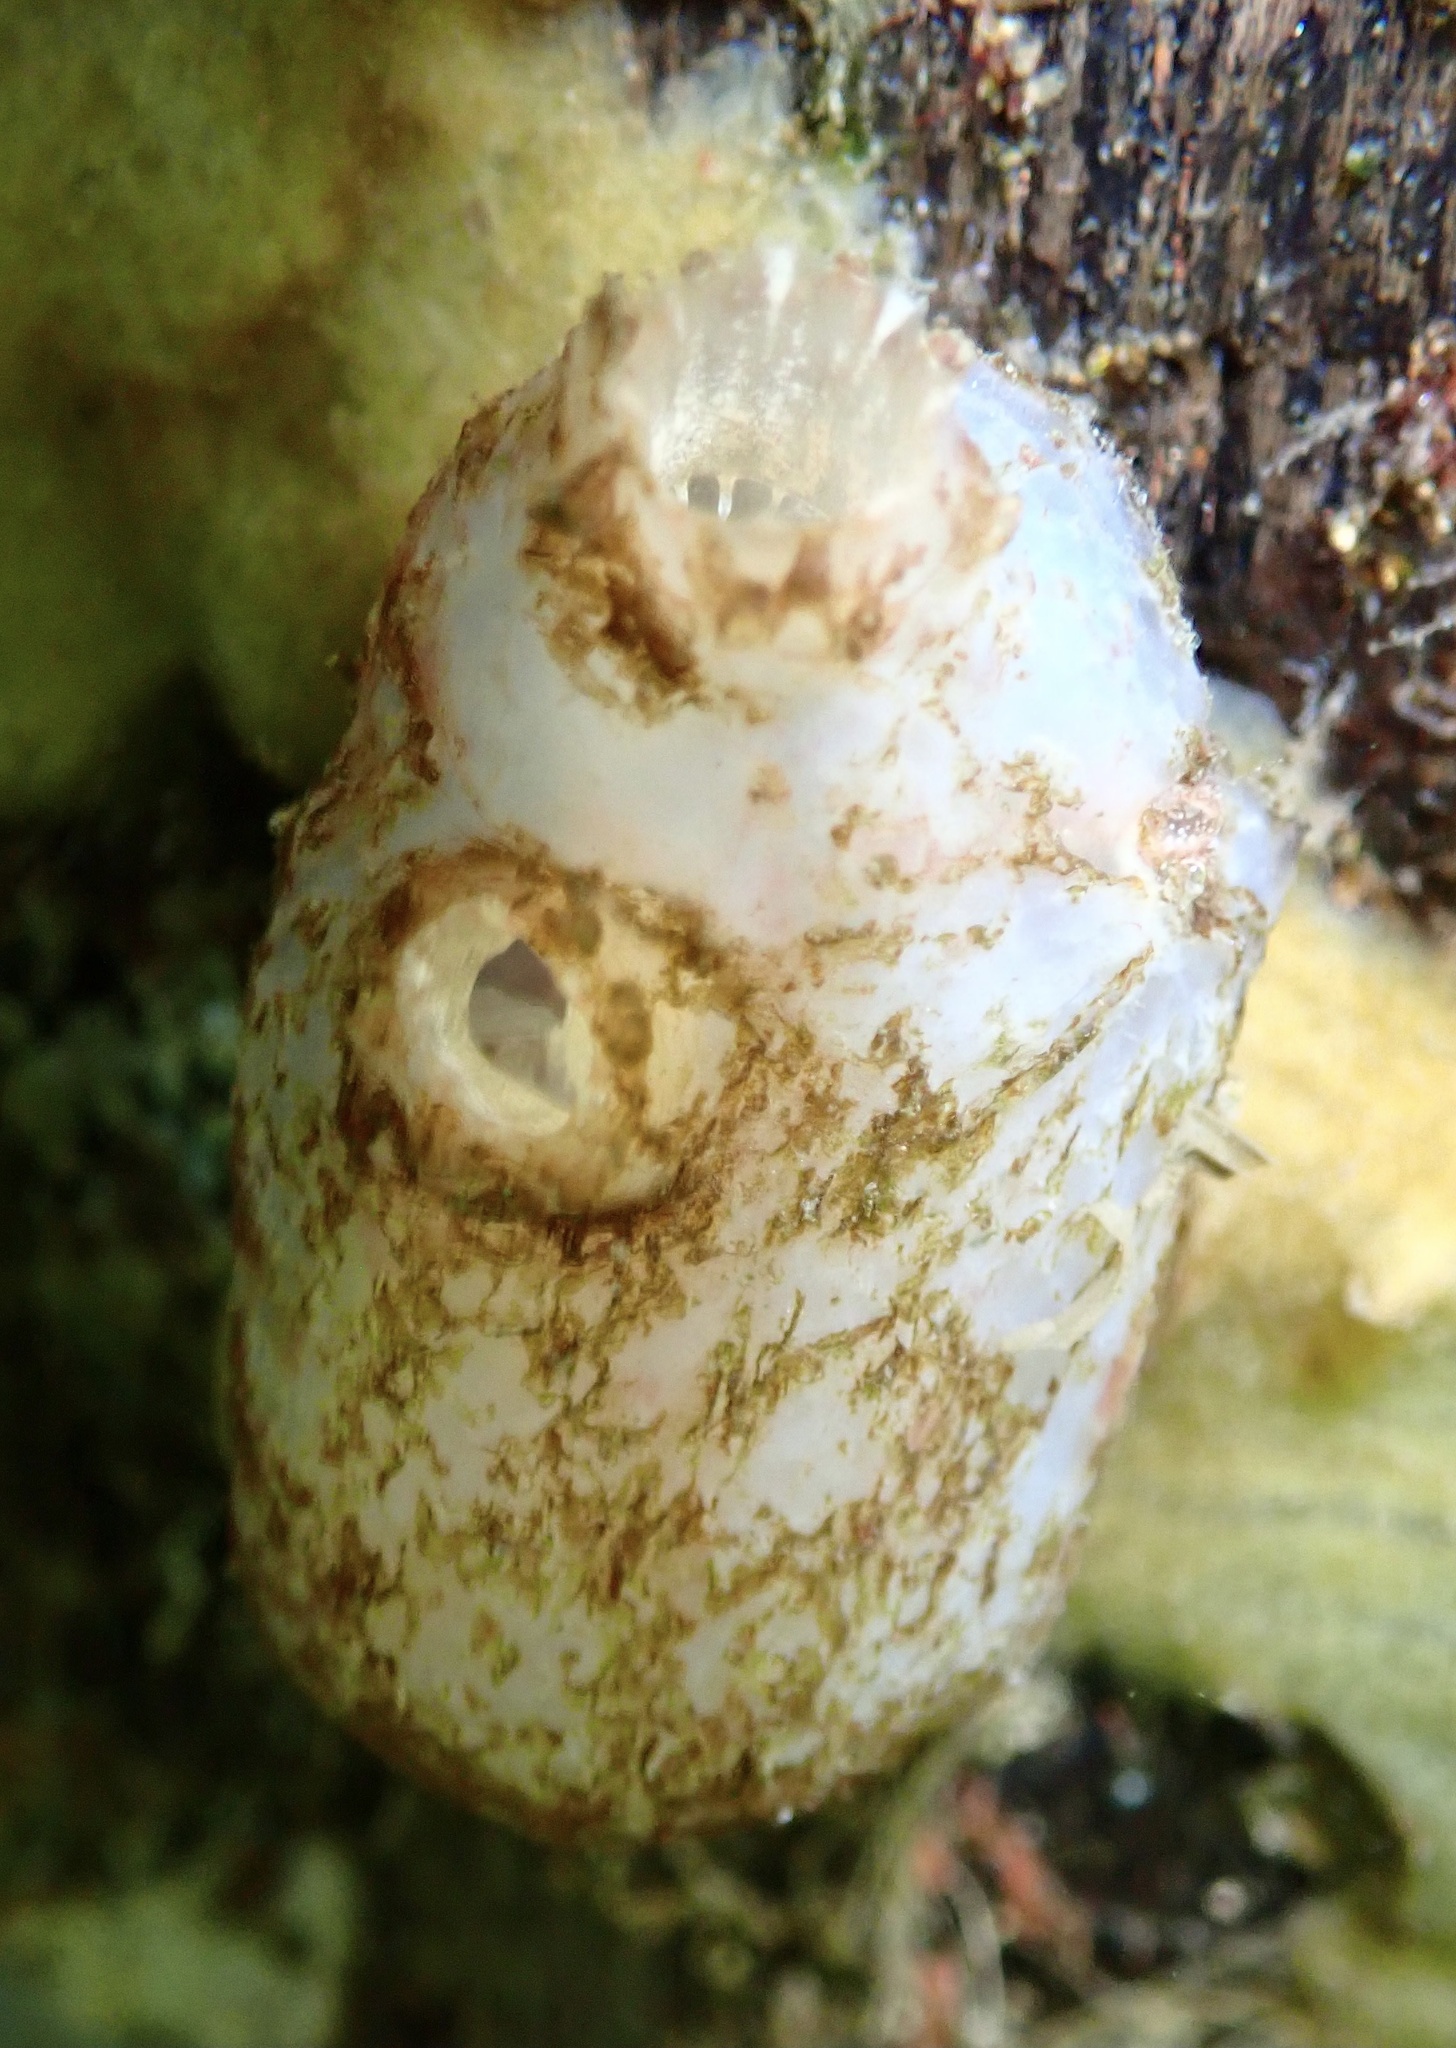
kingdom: Animalia
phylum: Chordata
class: Ascidiacea
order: Phlebobranchia
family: Ascidiidae
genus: Ascidiella
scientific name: Ascidiella aspersa
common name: Dirty sea-squirt
